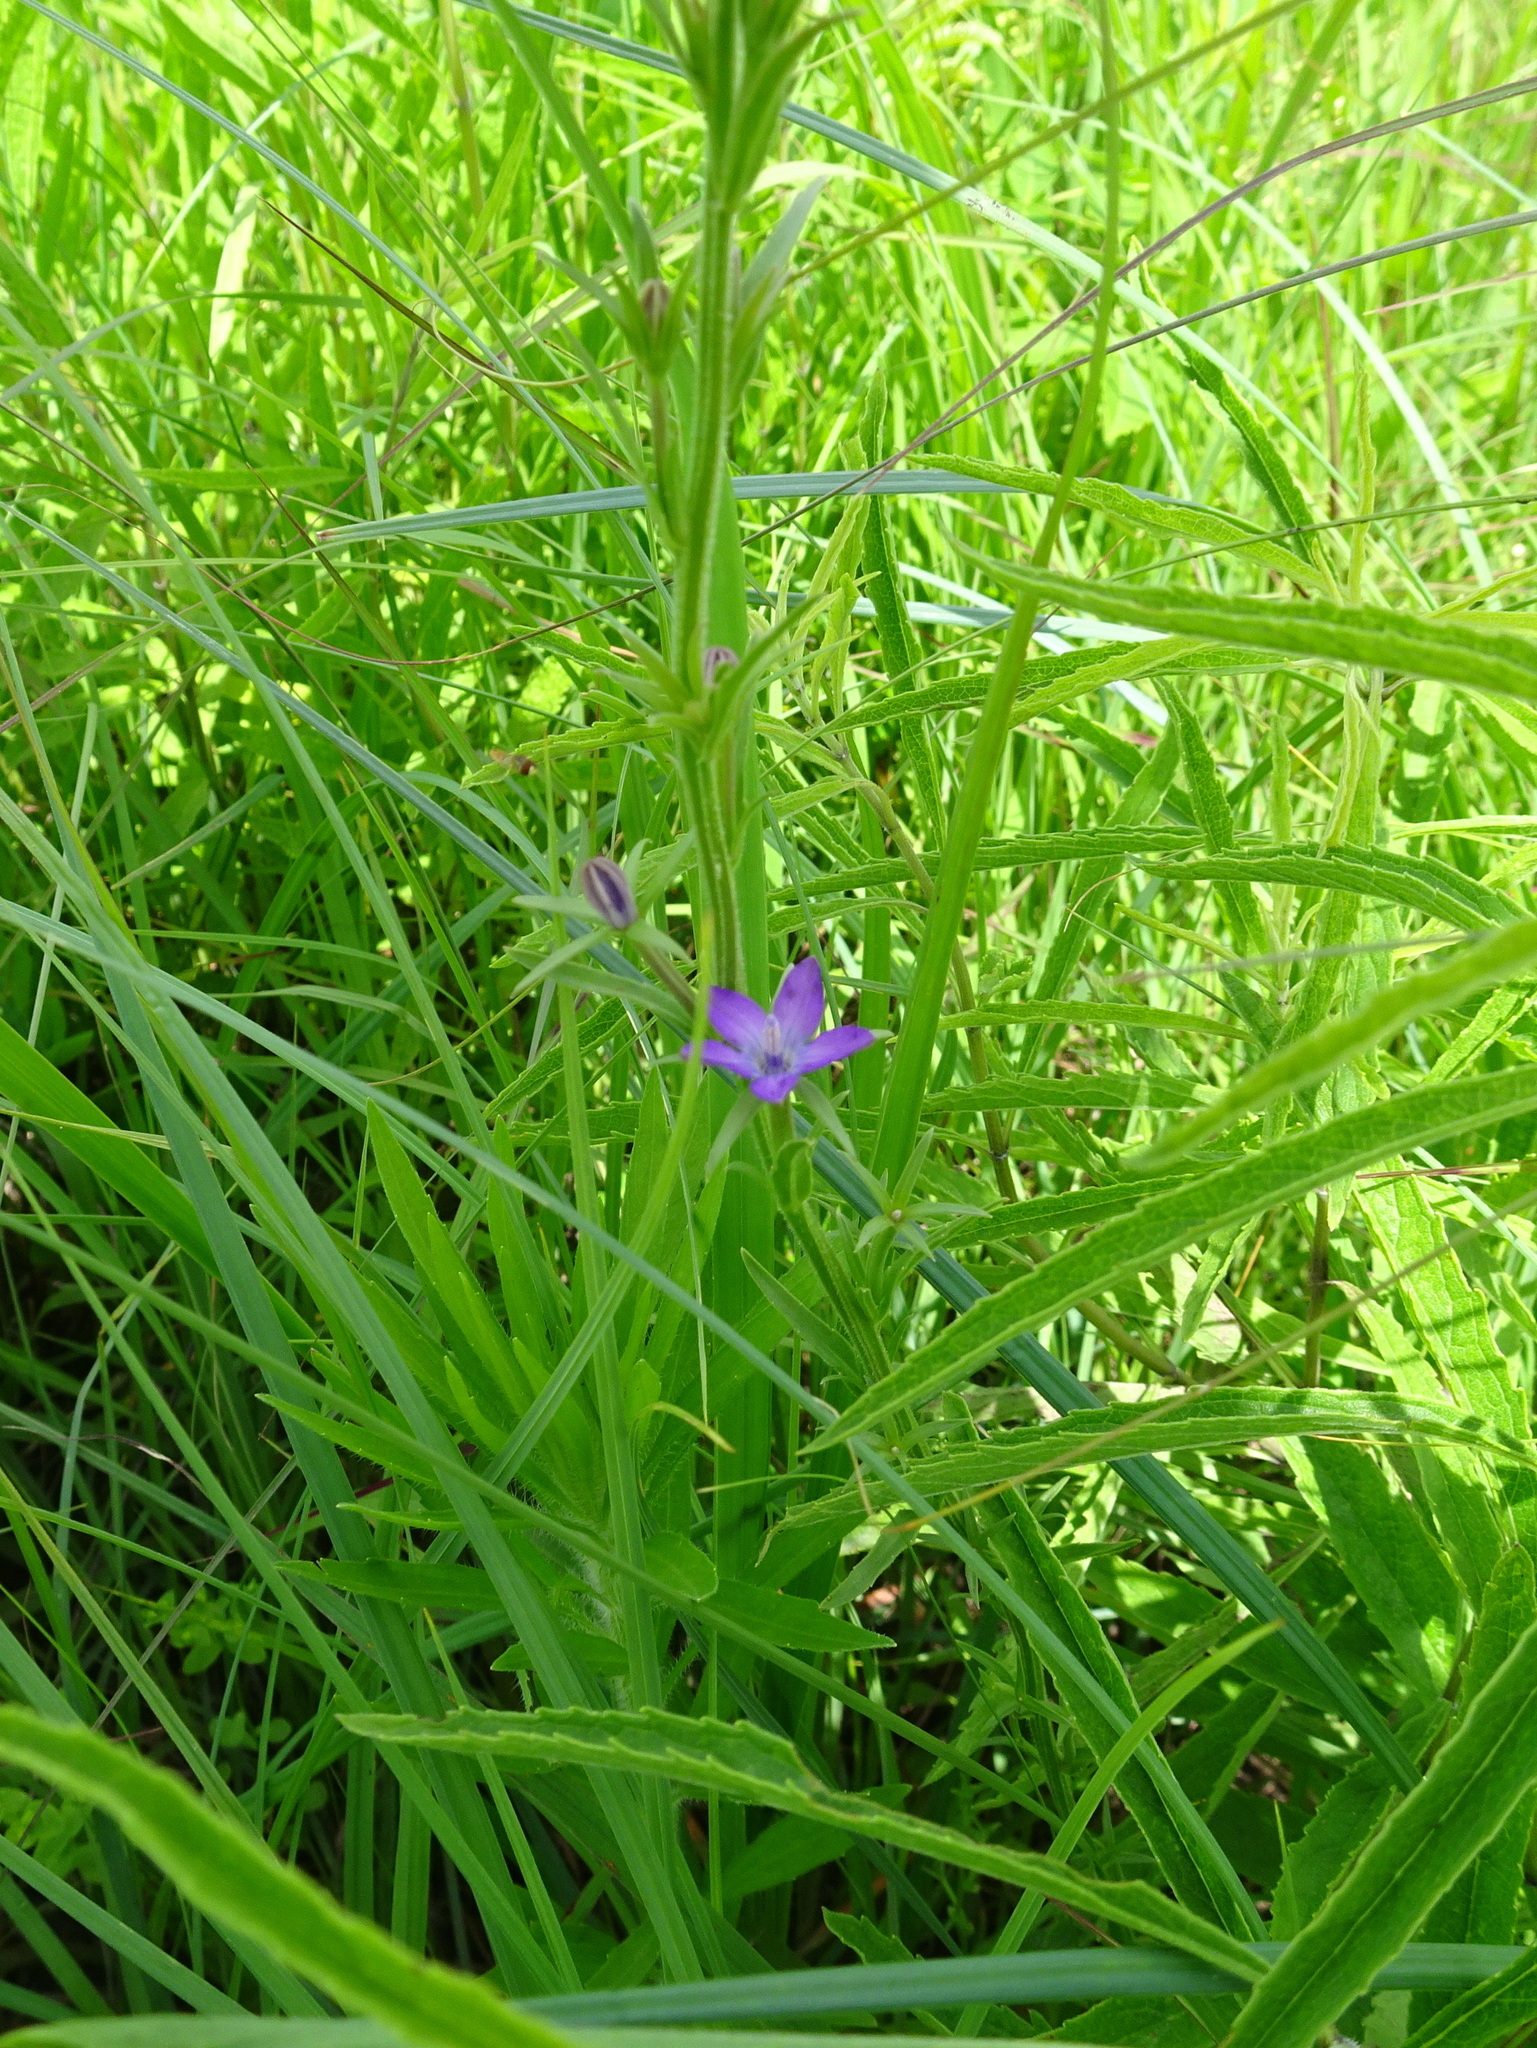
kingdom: Plantae
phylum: Tracheophyta
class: Magnoliopsida
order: Asterales
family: Campanulaceae
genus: Triodanis
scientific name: Triodanis leptocarpa
